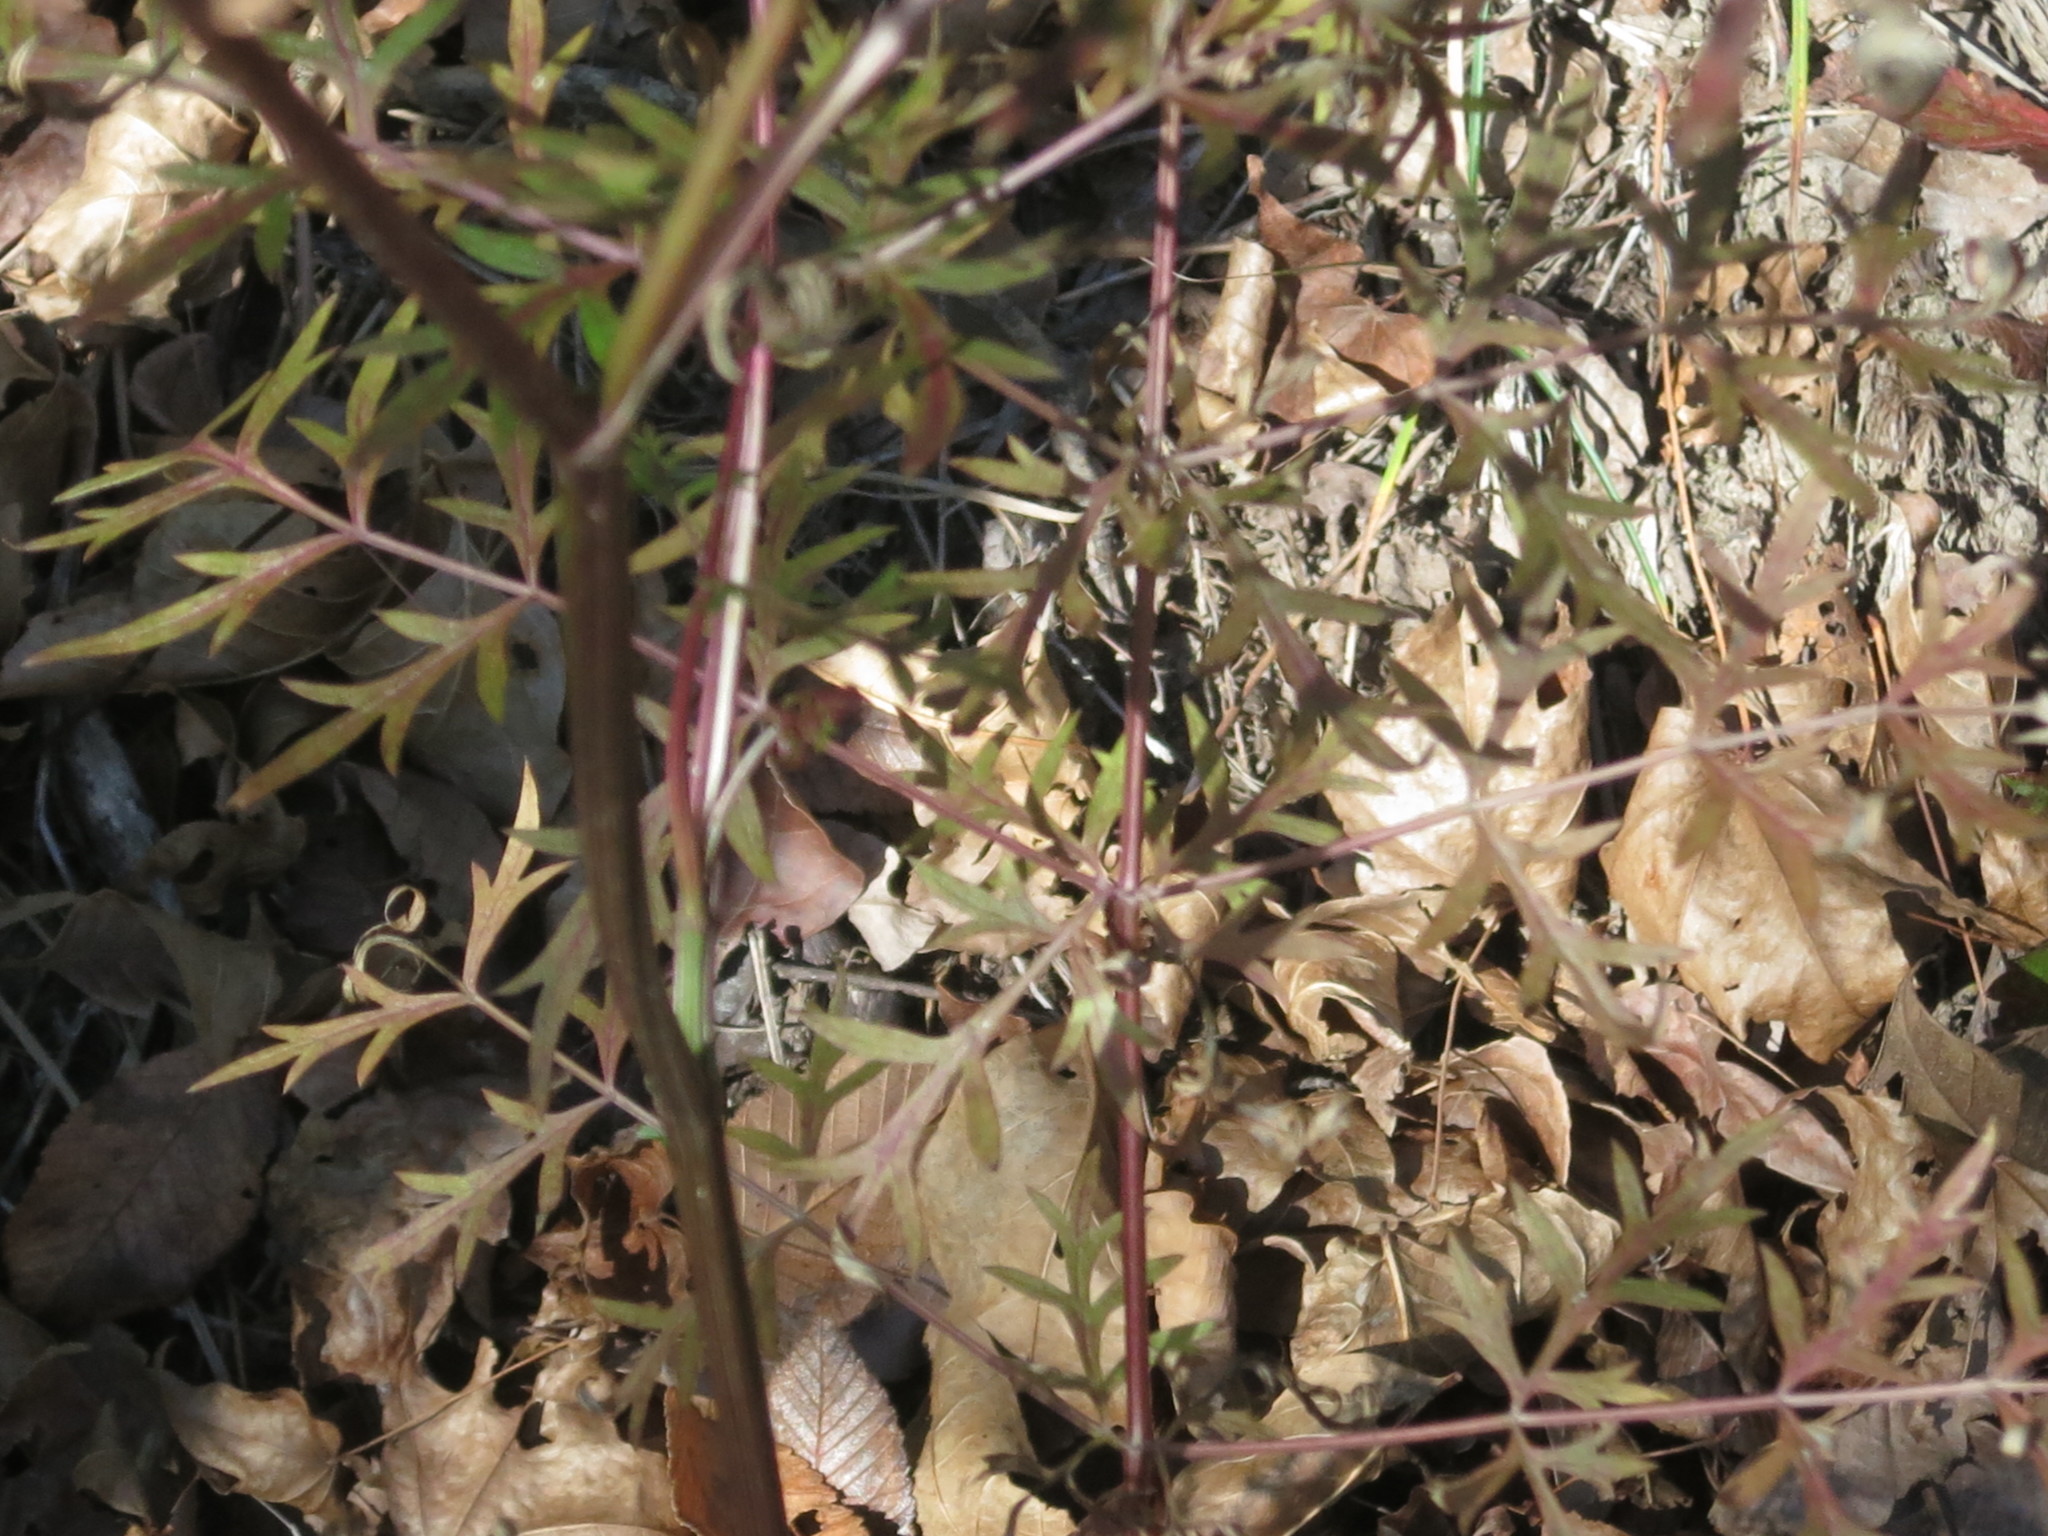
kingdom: Plantae
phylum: Tracheophyta
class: Magnoliopsida
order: Apiales
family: Apiaceae
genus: Seseli
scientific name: Seseli seseloides
